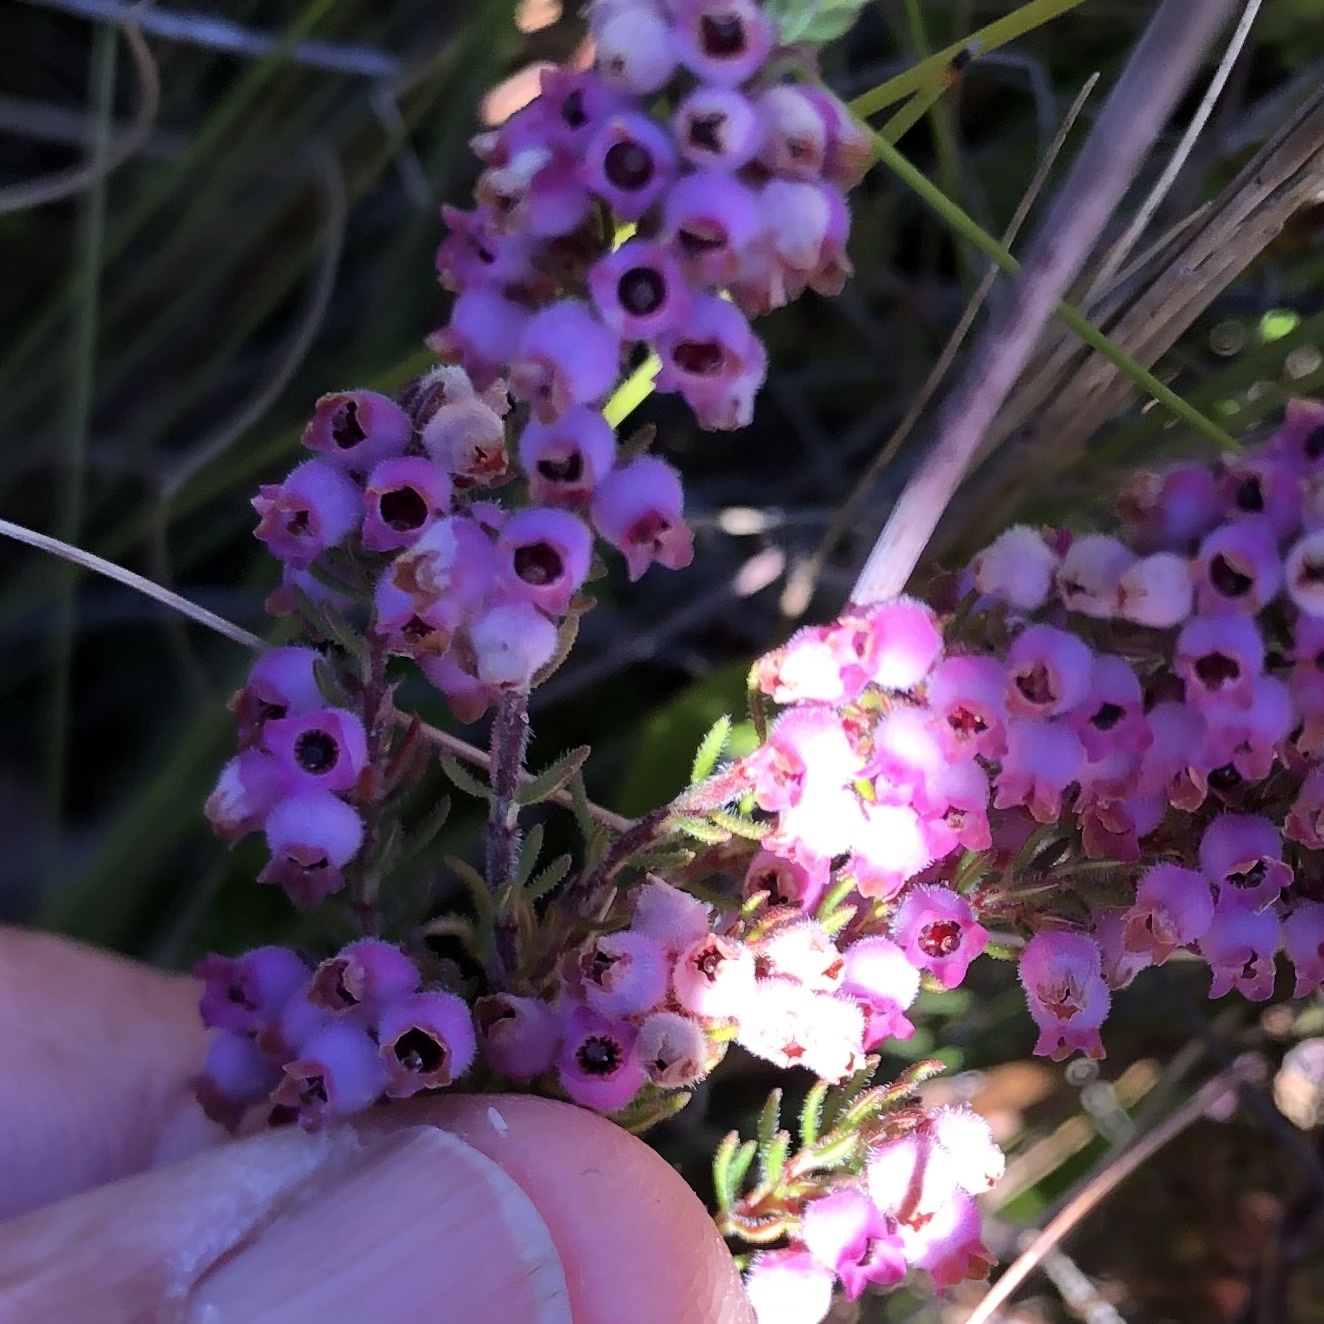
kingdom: Plantae
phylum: Tracheophyta
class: Magnoliopsida
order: Ericales
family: Ericaceae
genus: Erica
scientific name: Erica mollis
